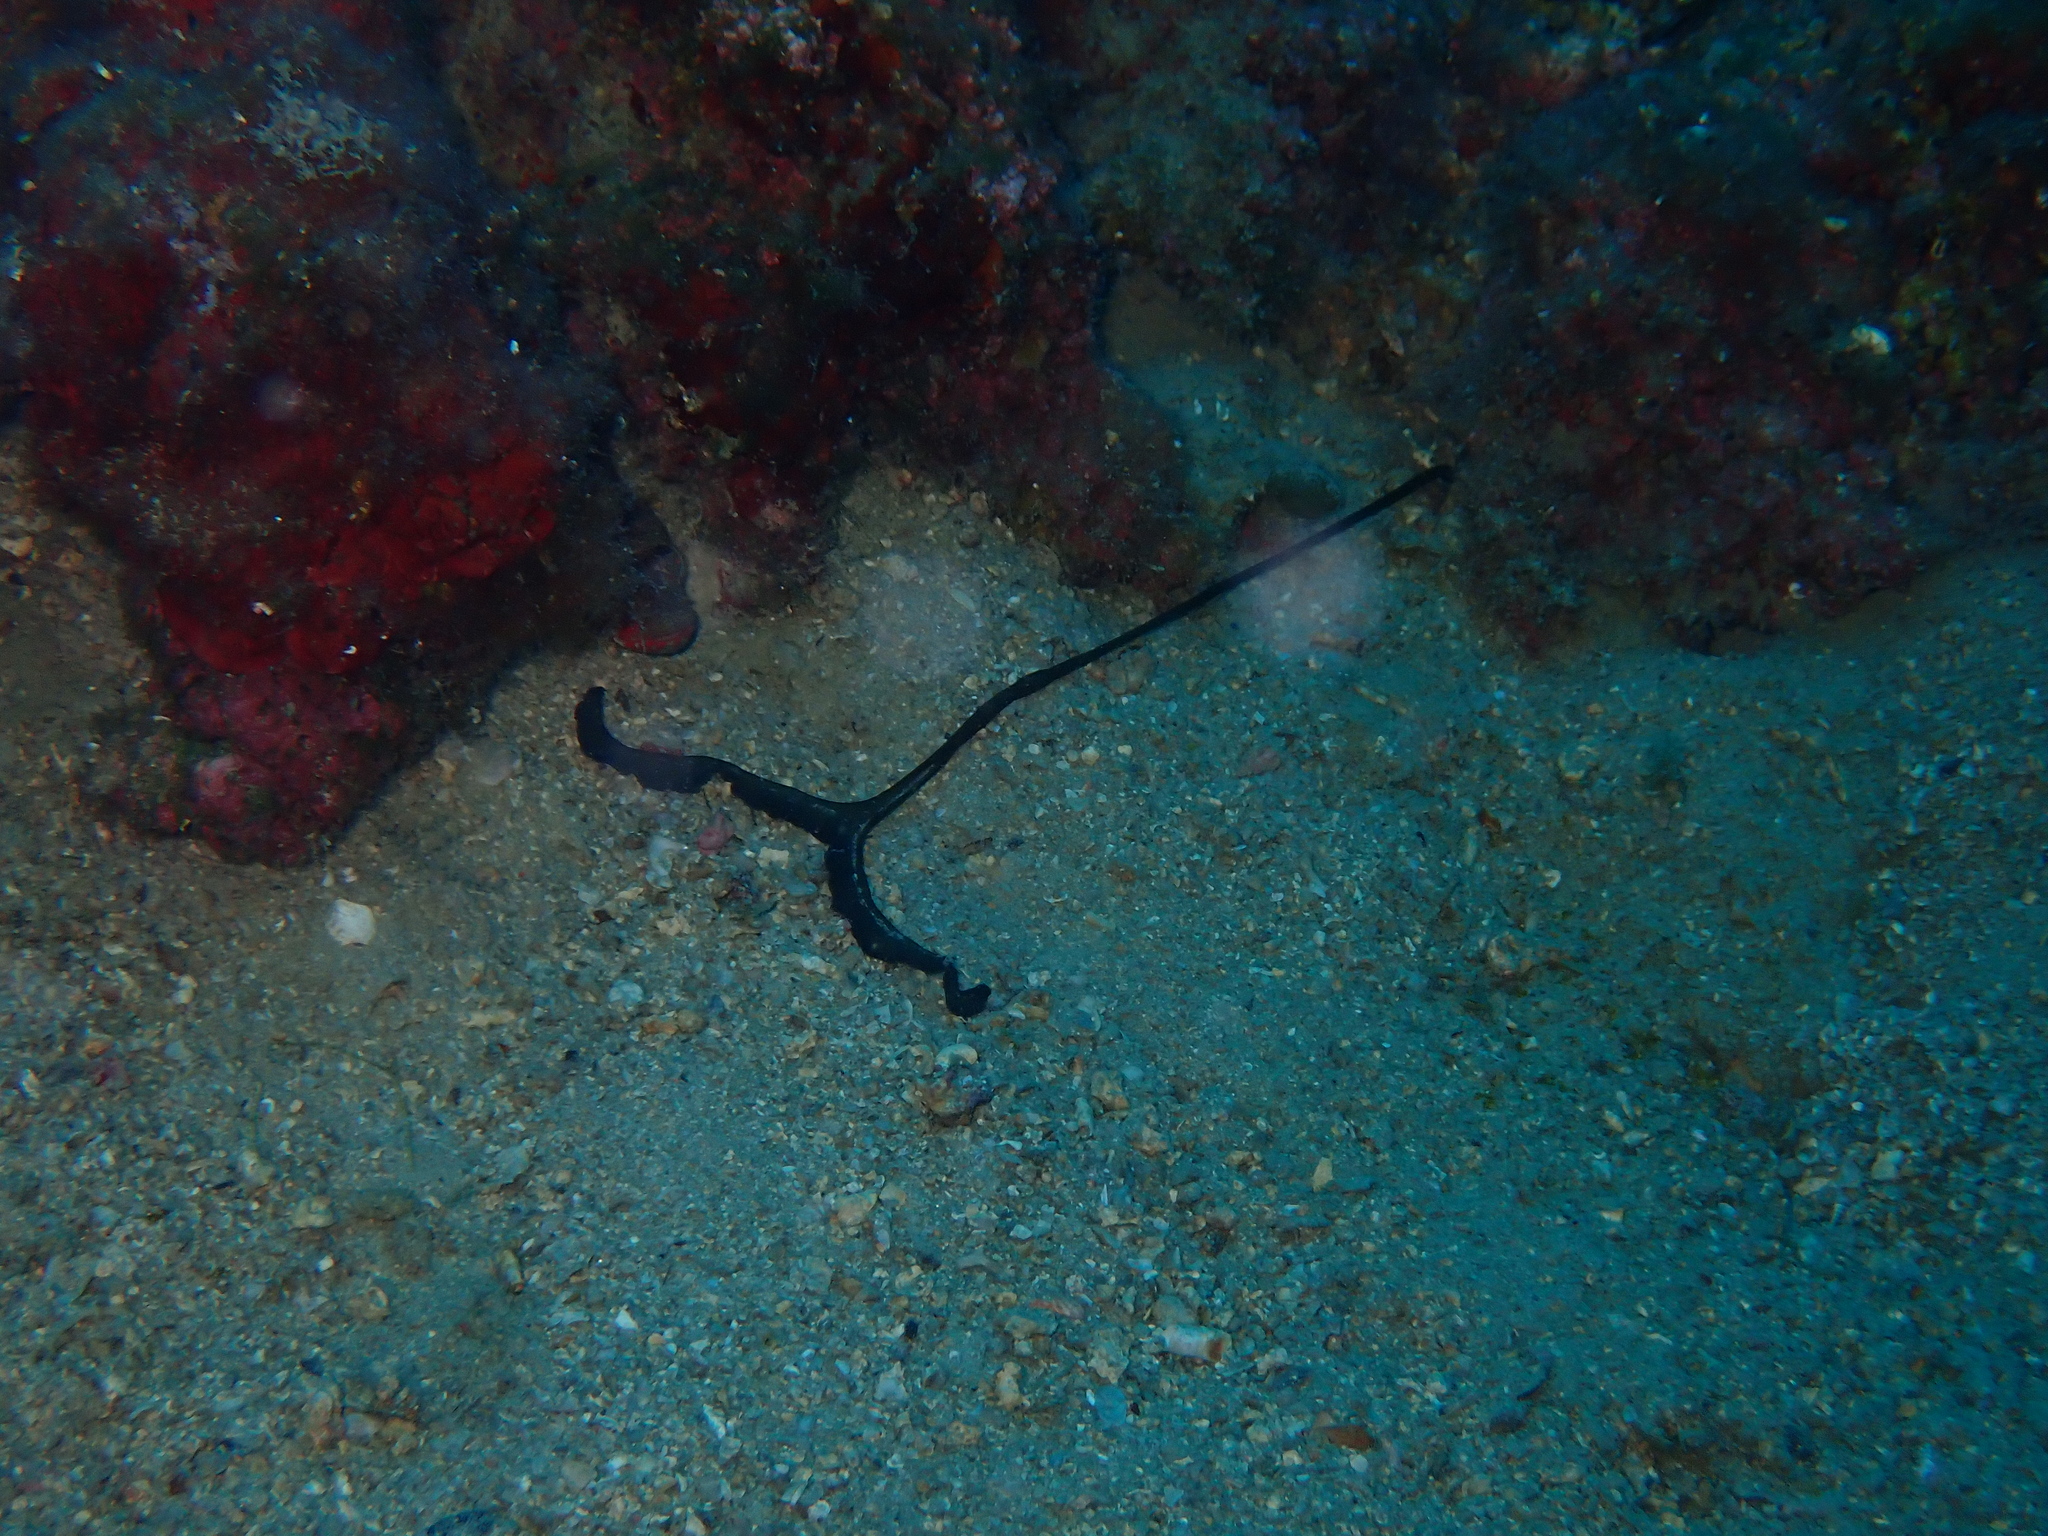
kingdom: Animalia
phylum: Annelida
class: Polychaeta
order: Echiuroidea
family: Bonelliidae
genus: Bonellia
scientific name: Bonellia viridis
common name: Green spoon worm
